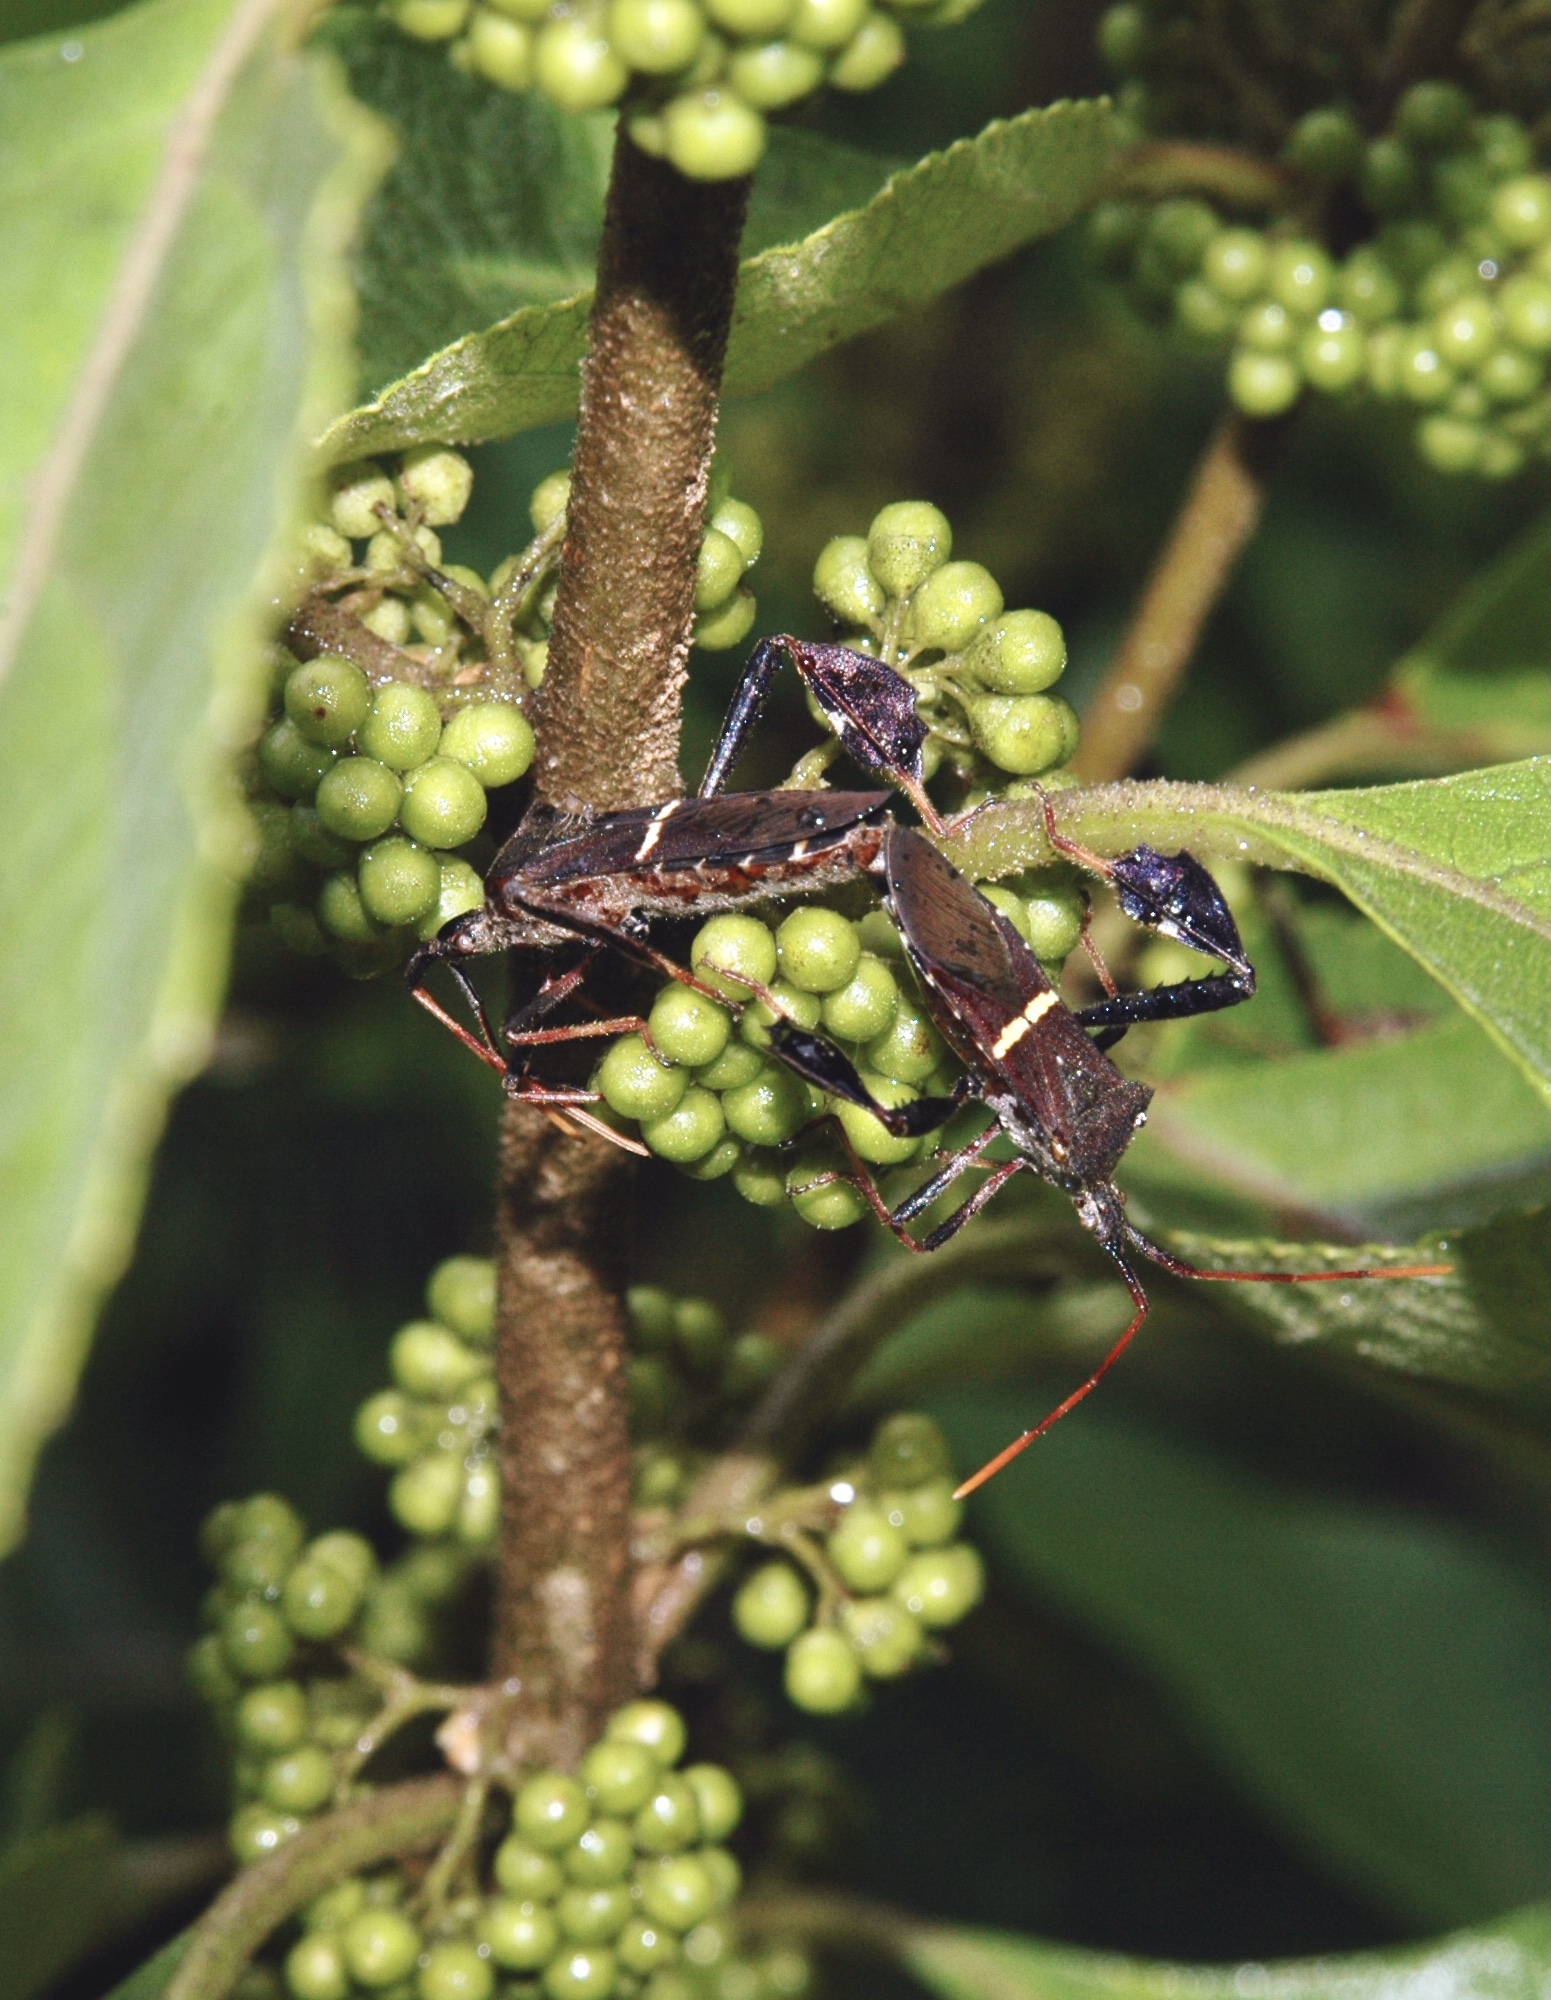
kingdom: Animalia
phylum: Arthropoda
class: Insecta
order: Hemiptera
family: Coreidae
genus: Leptoglossus
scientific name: Leptoglossus phyllopus
